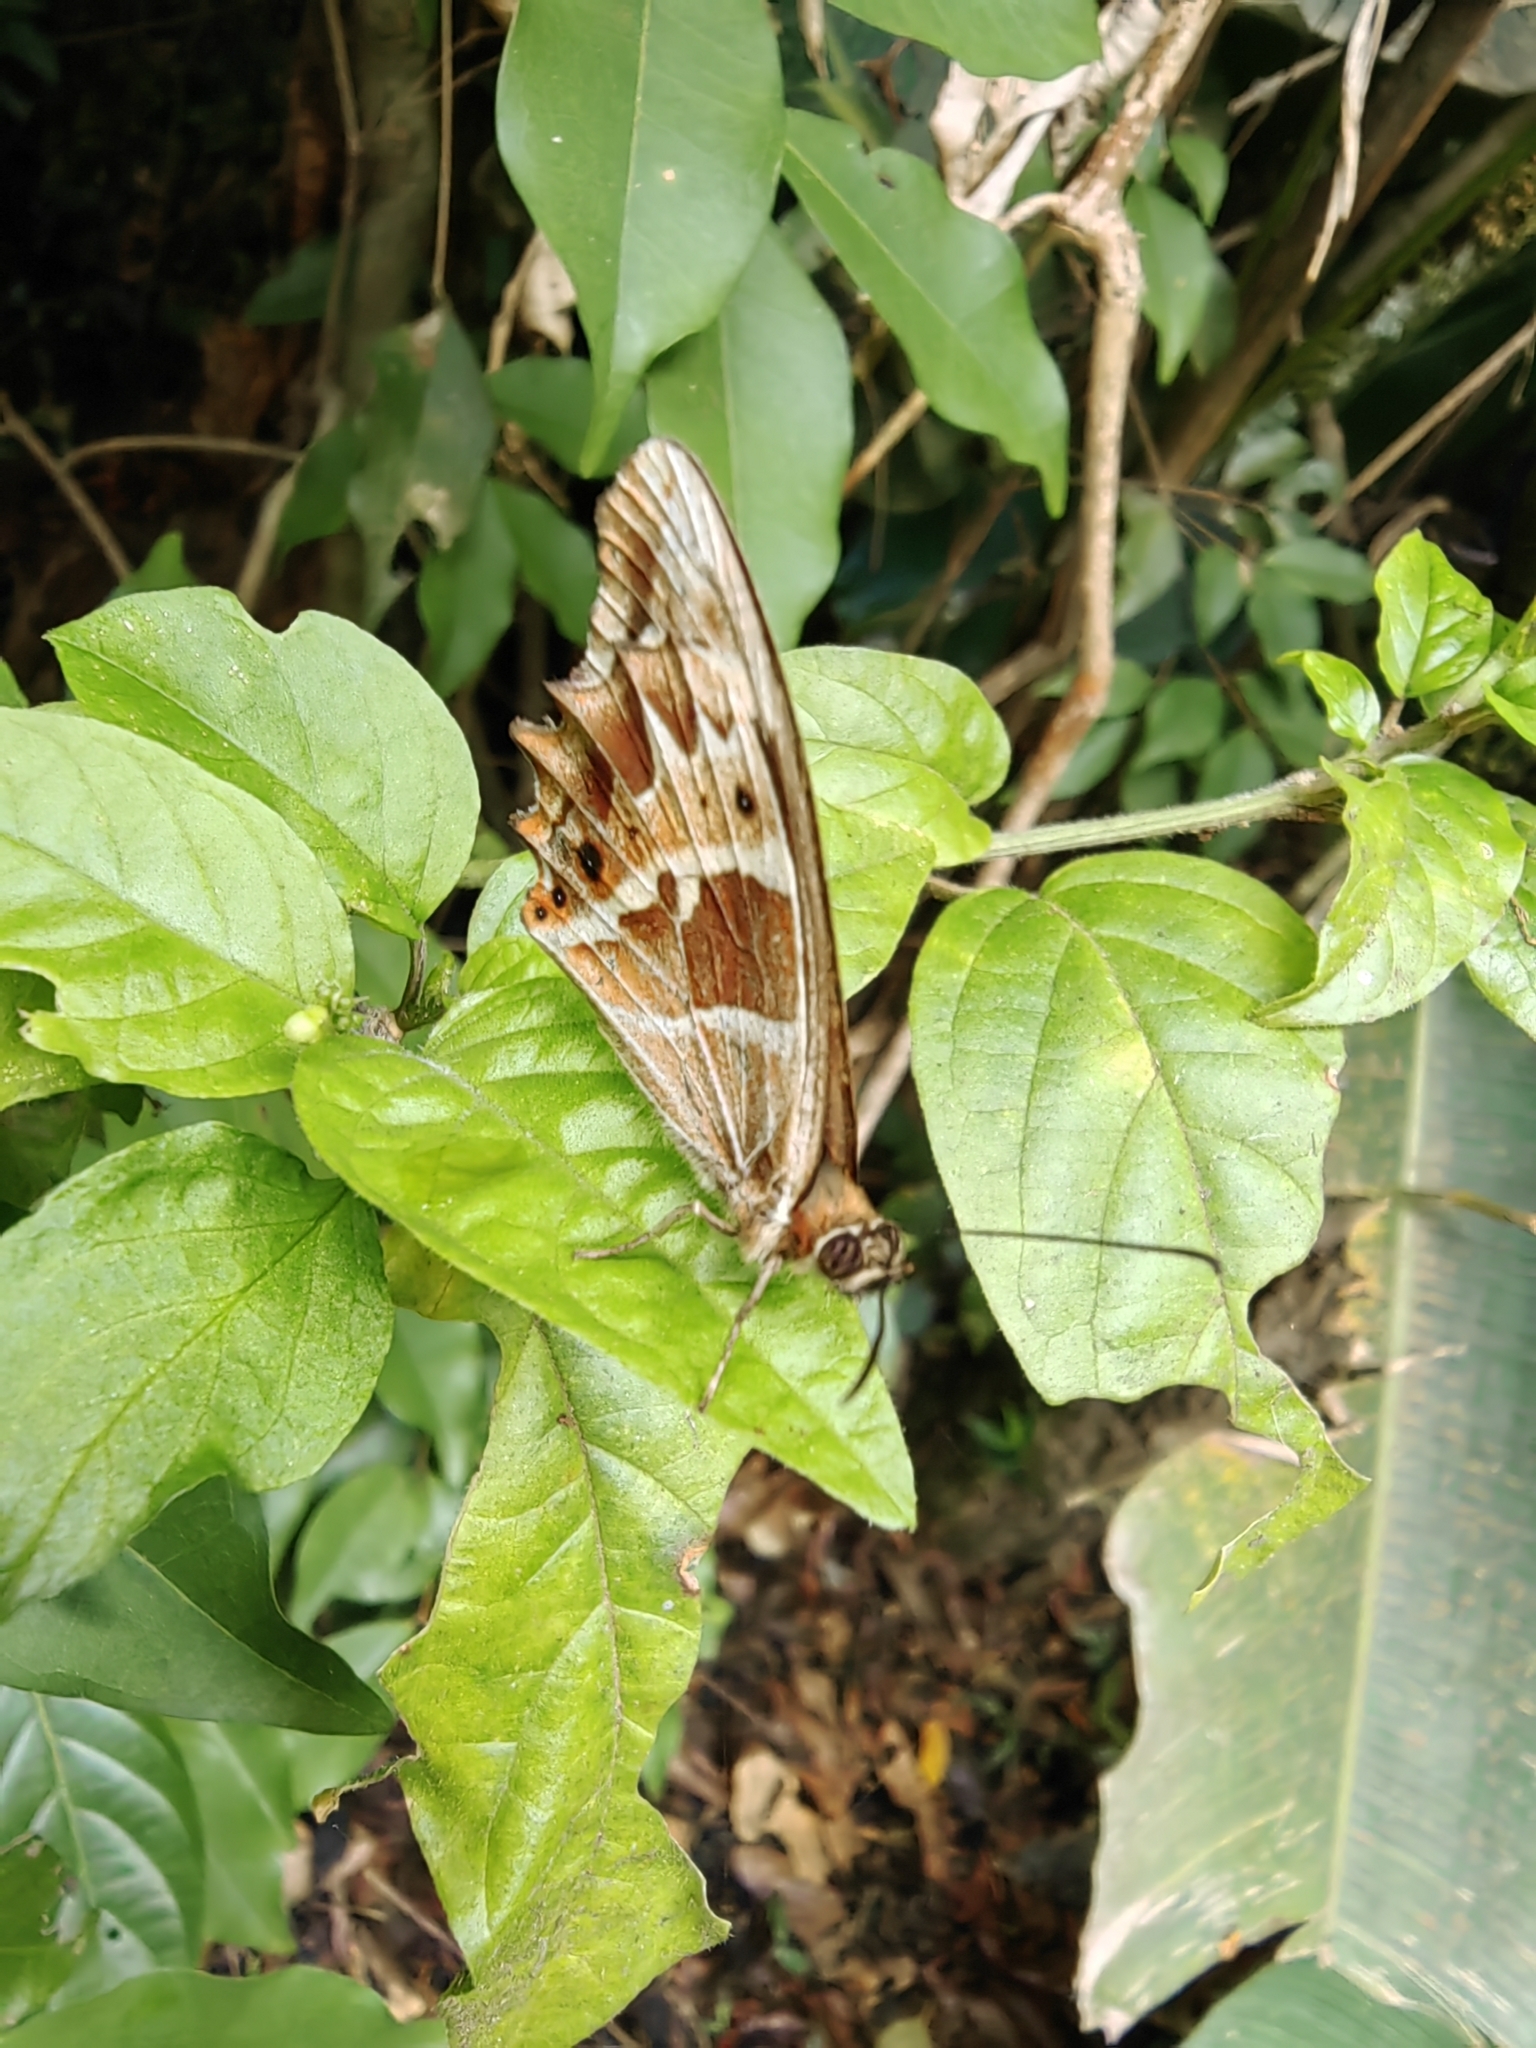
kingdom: Animalia
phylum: Arthropoda
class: Insecta
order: Lepidoptera
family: Nymphalidae
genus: Oxeoschistus
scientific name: Oxeoschistus tauropolis
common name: Starred oxeo
